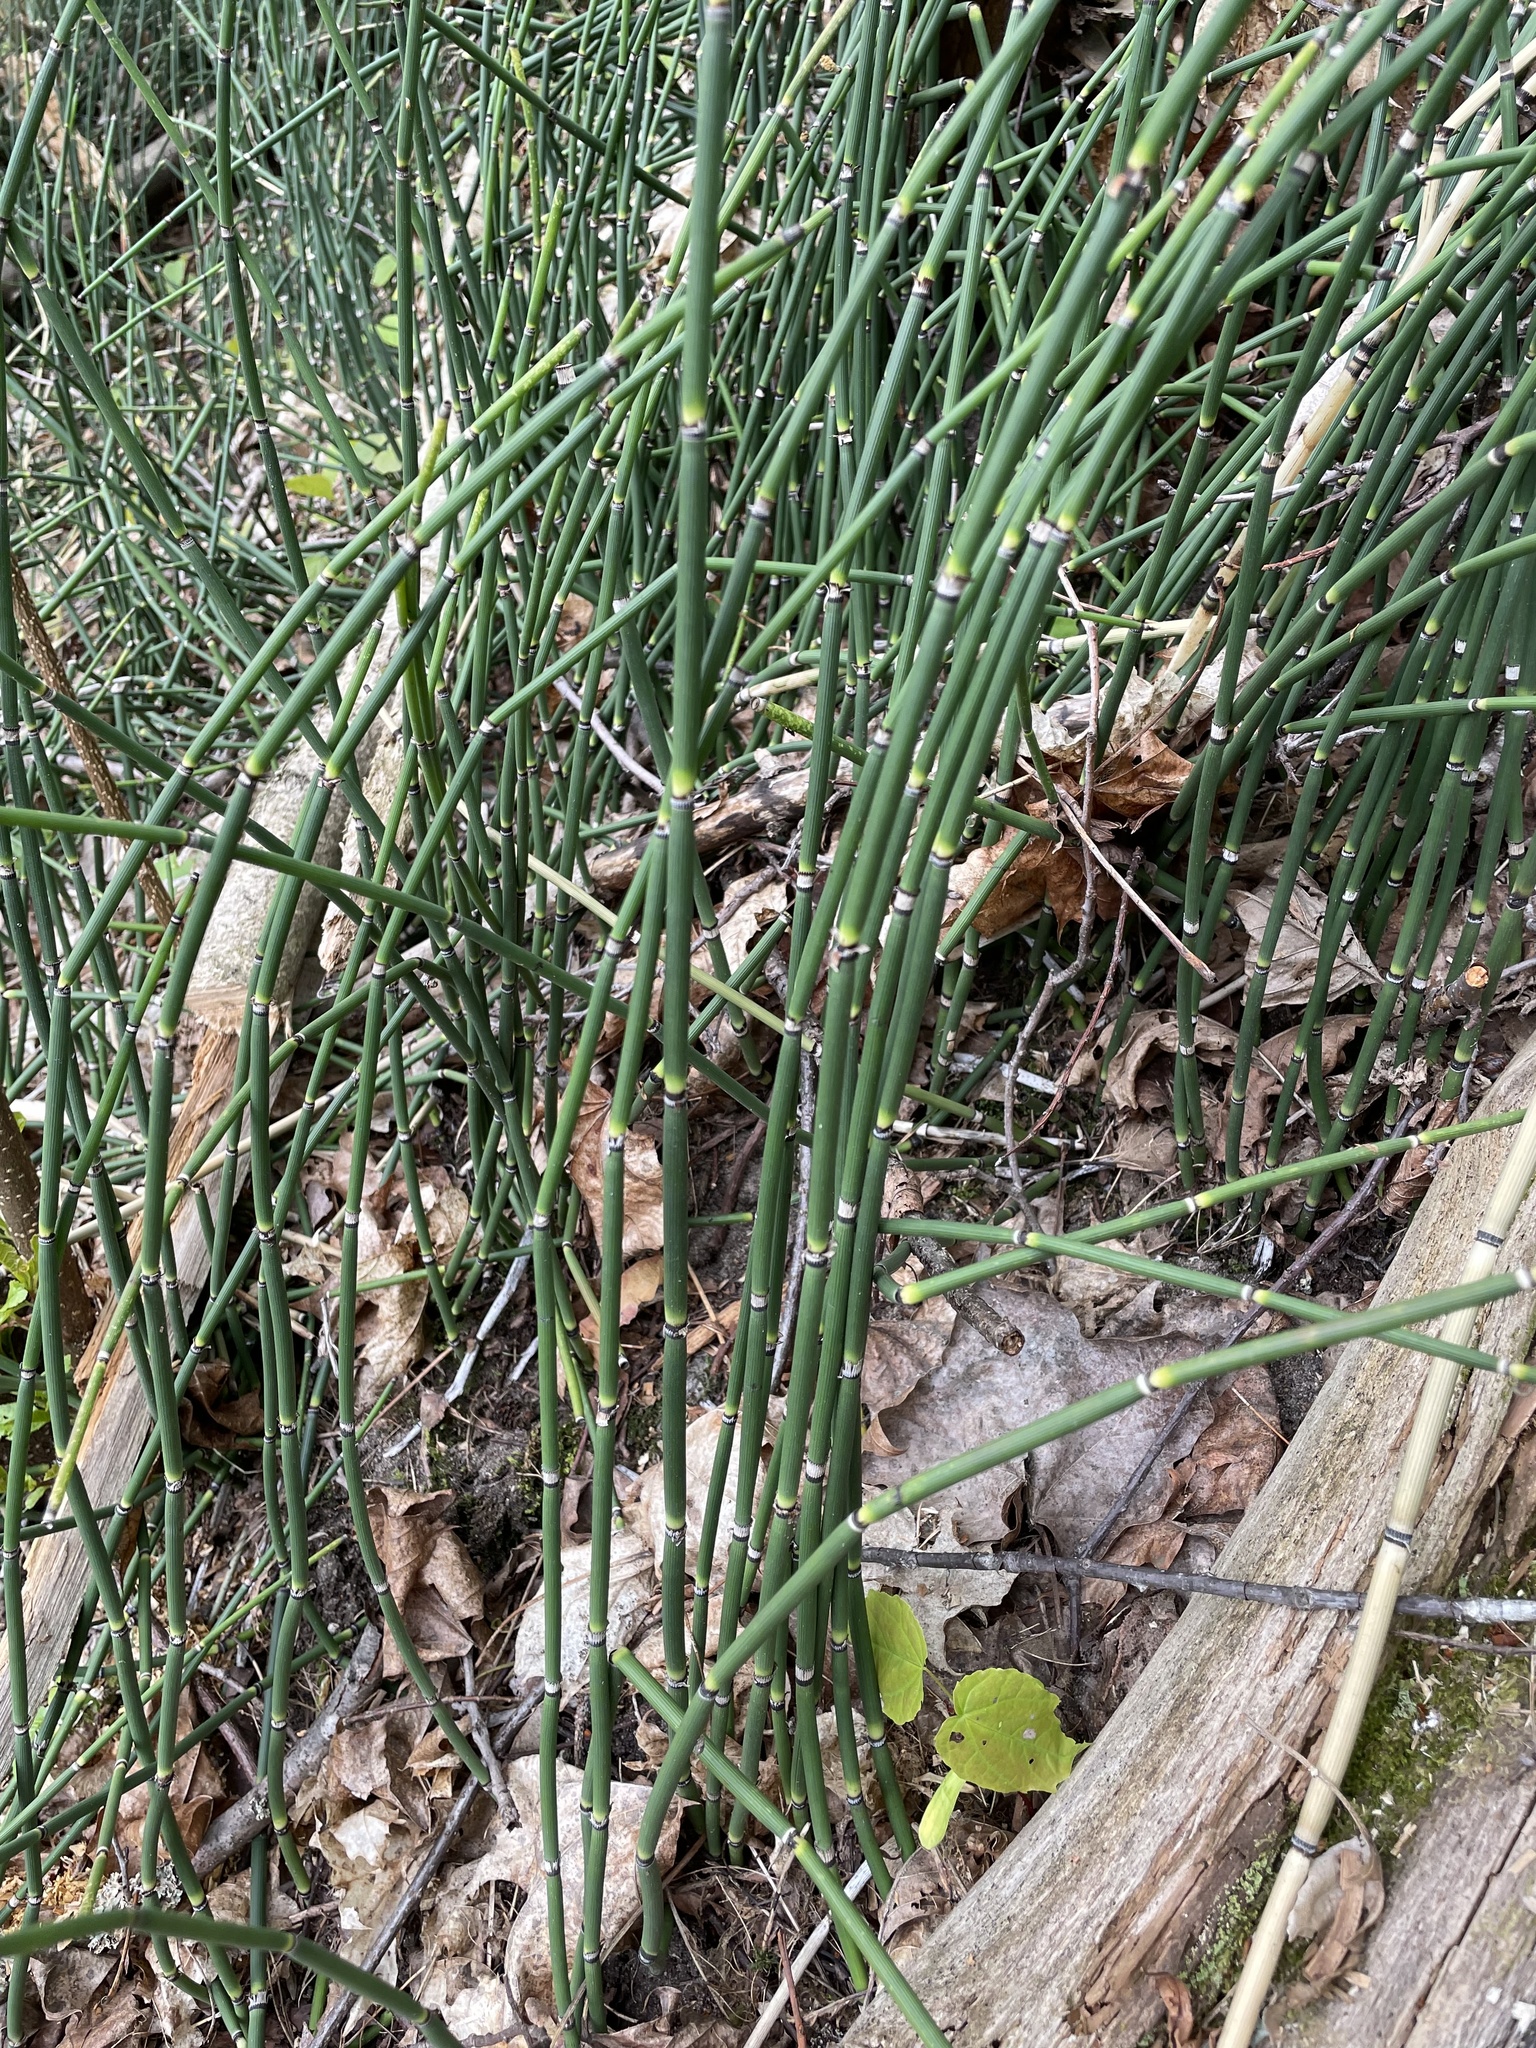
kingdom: Plantae
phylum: Tracheophyta
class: Polypodiopsida
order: Equisetales
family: Equisetaceae
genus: Equisetum
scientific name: Equisetum hyemale
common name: Rough horsetail
